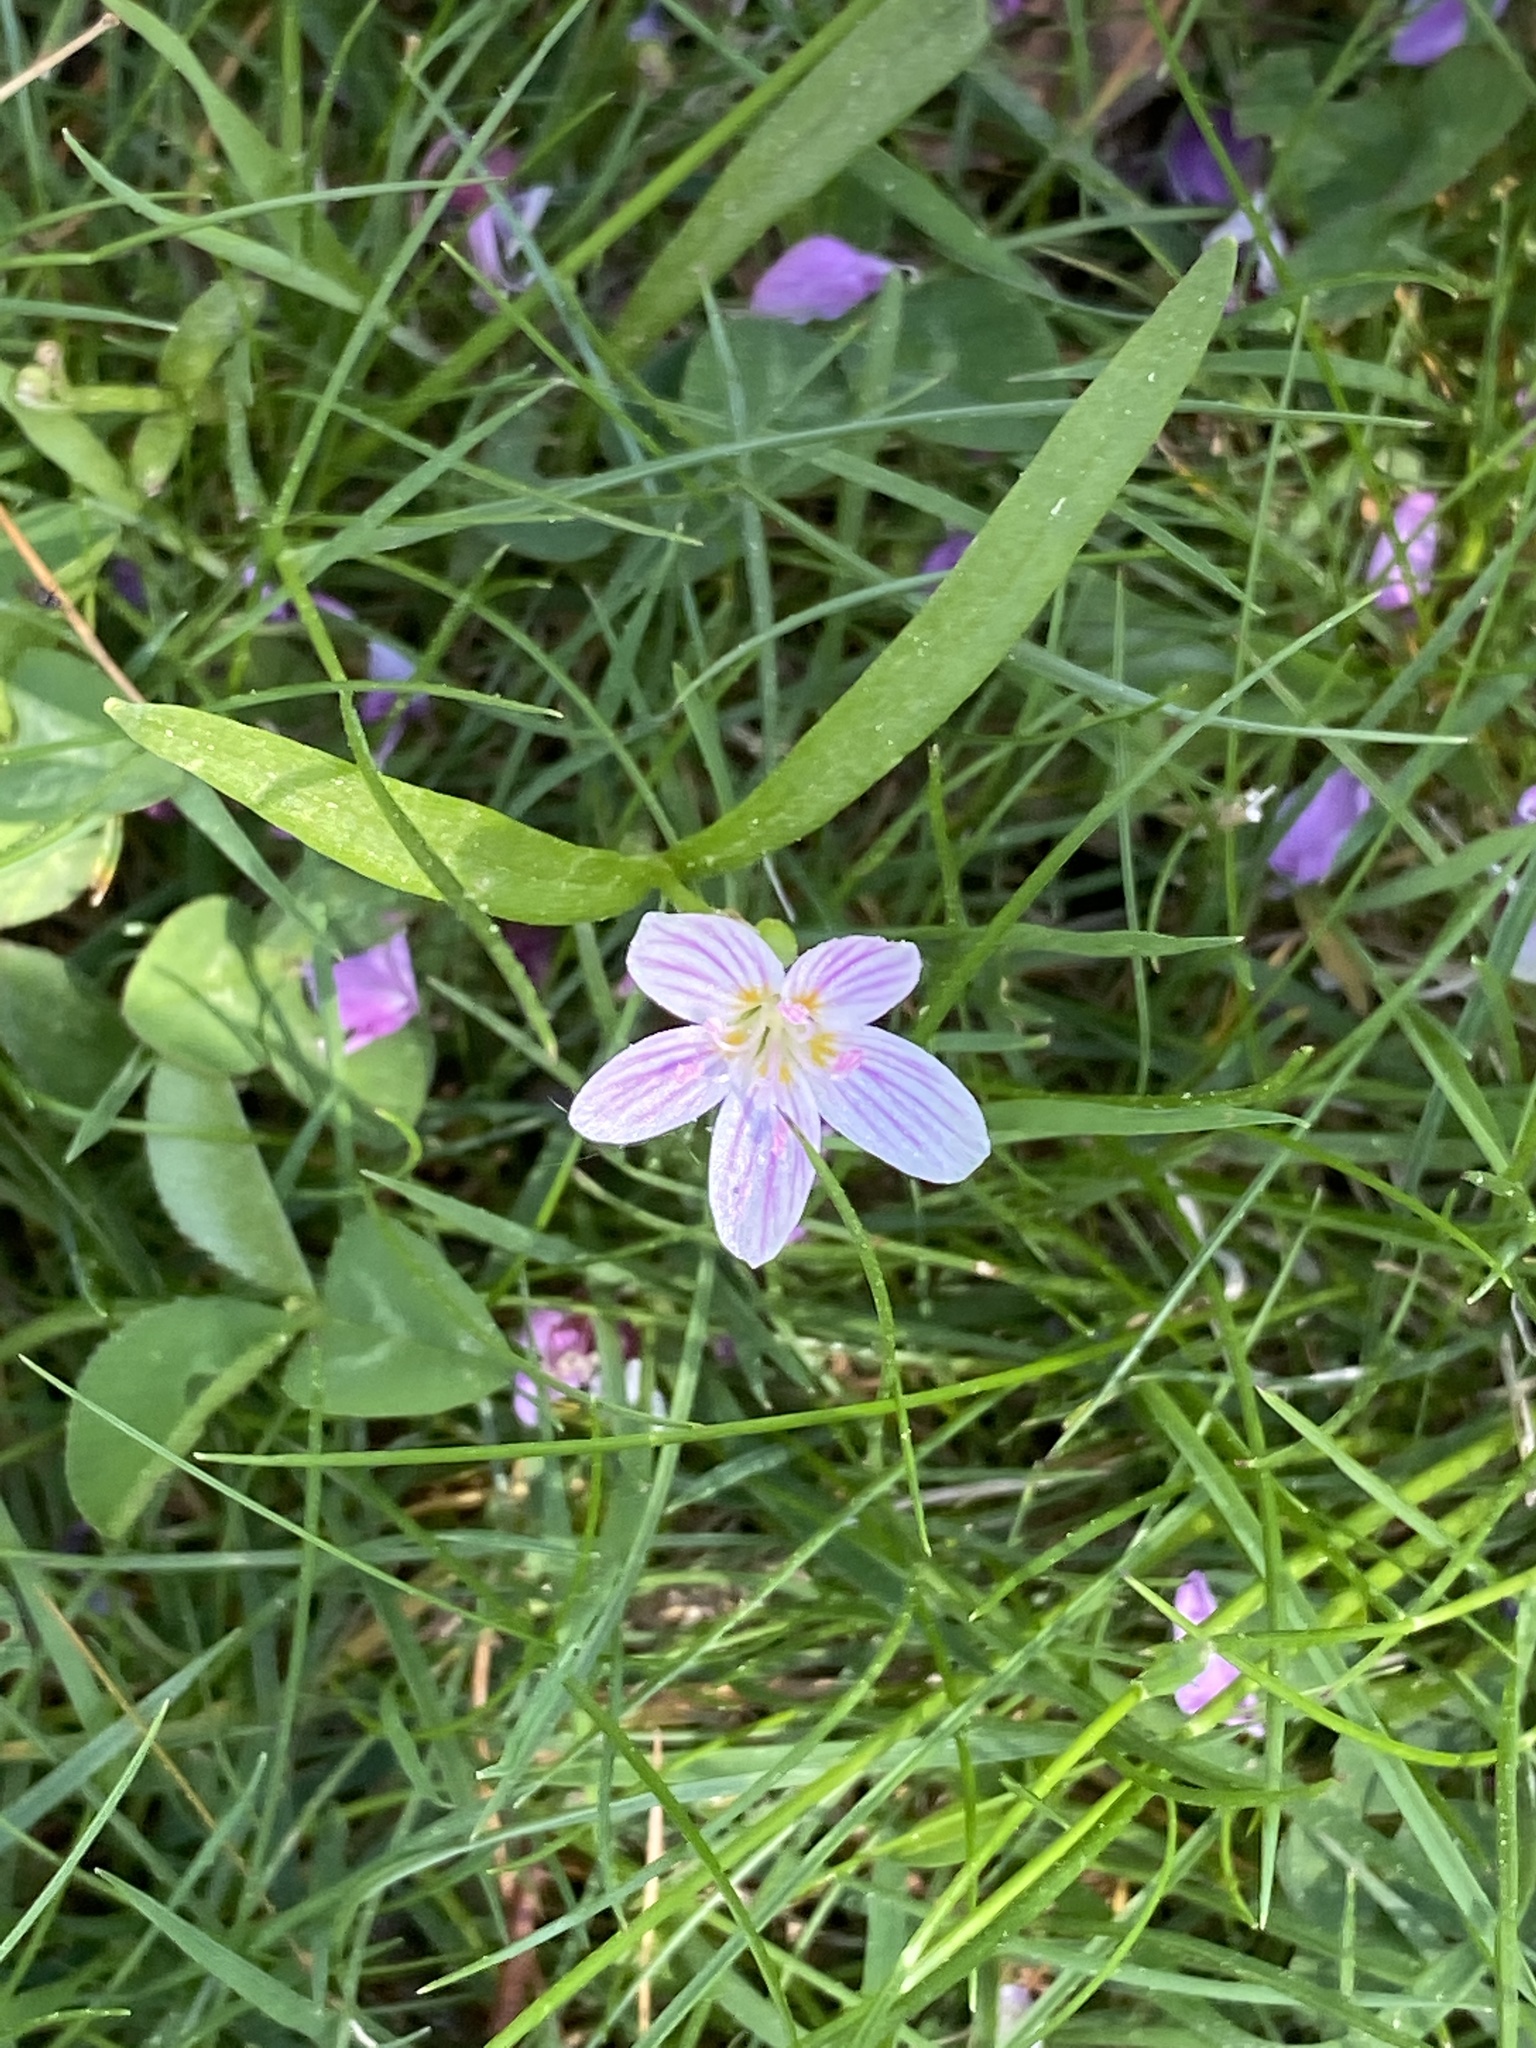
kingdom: Plantae
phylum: Tracheophyta
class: Magnoliopsida
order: Caryophyllales
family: Montiaceae
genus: Claytonia
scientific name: Claytonia virginica
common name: Virginia springbeauty
